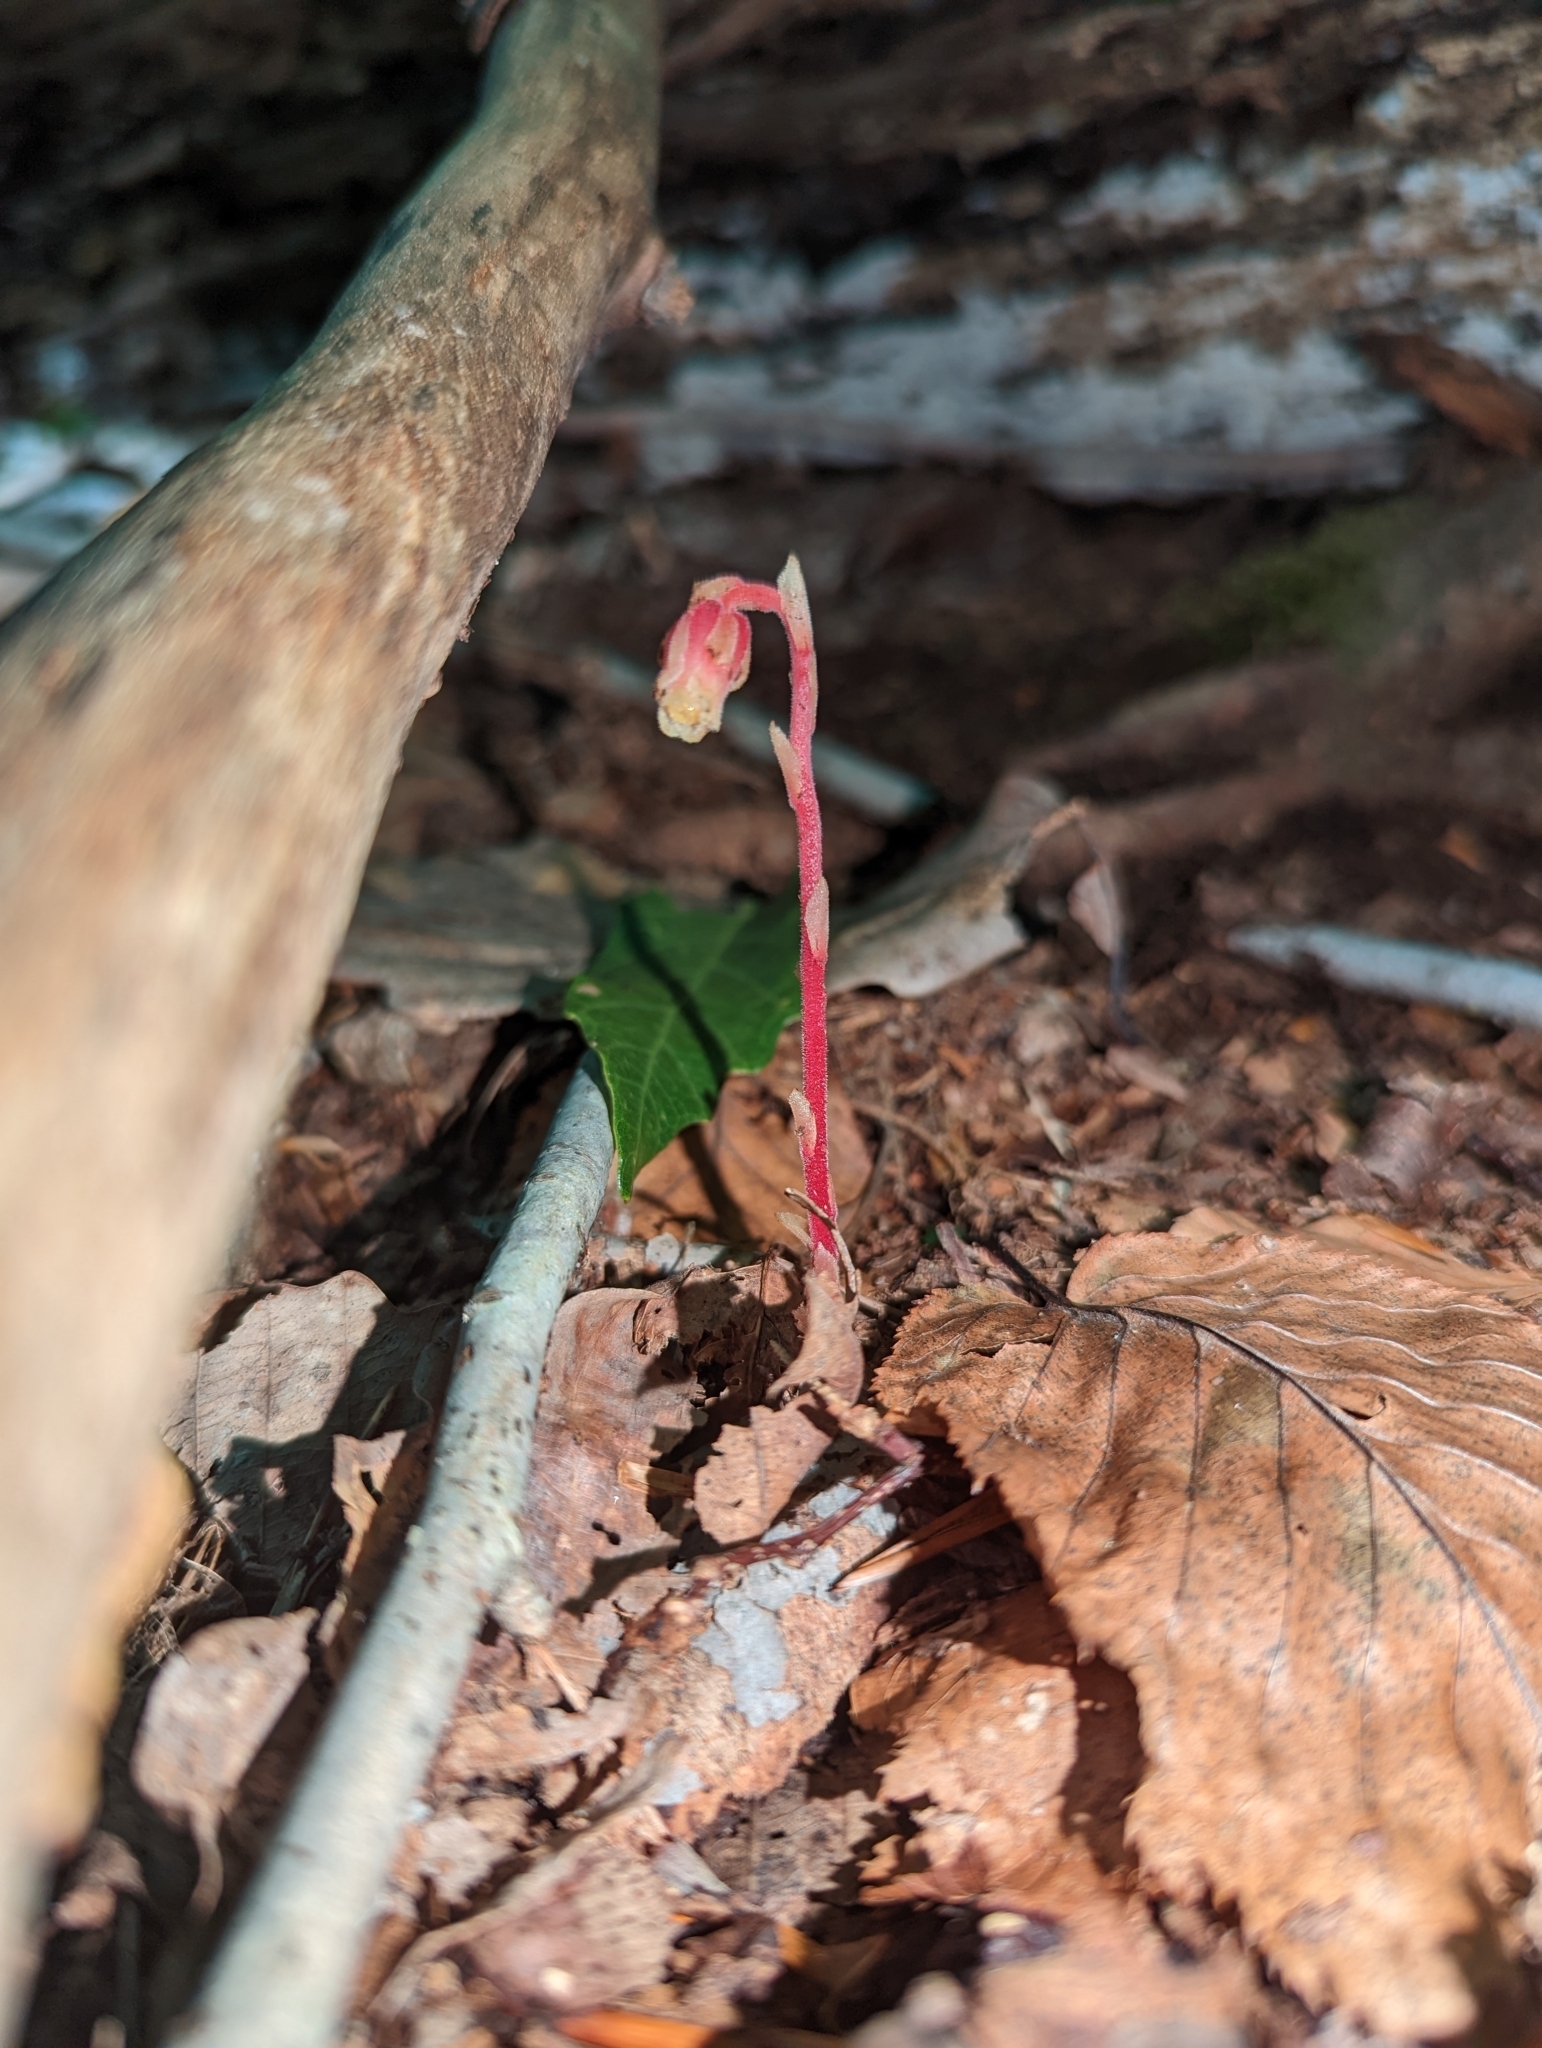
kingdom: Plantae
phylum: Tracheophyta
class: Magnoliopsida
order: Ericales
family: Ericaceae
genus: Hypopitys
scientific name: Hypopitys monotropa
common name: Yellow bird's-nest
